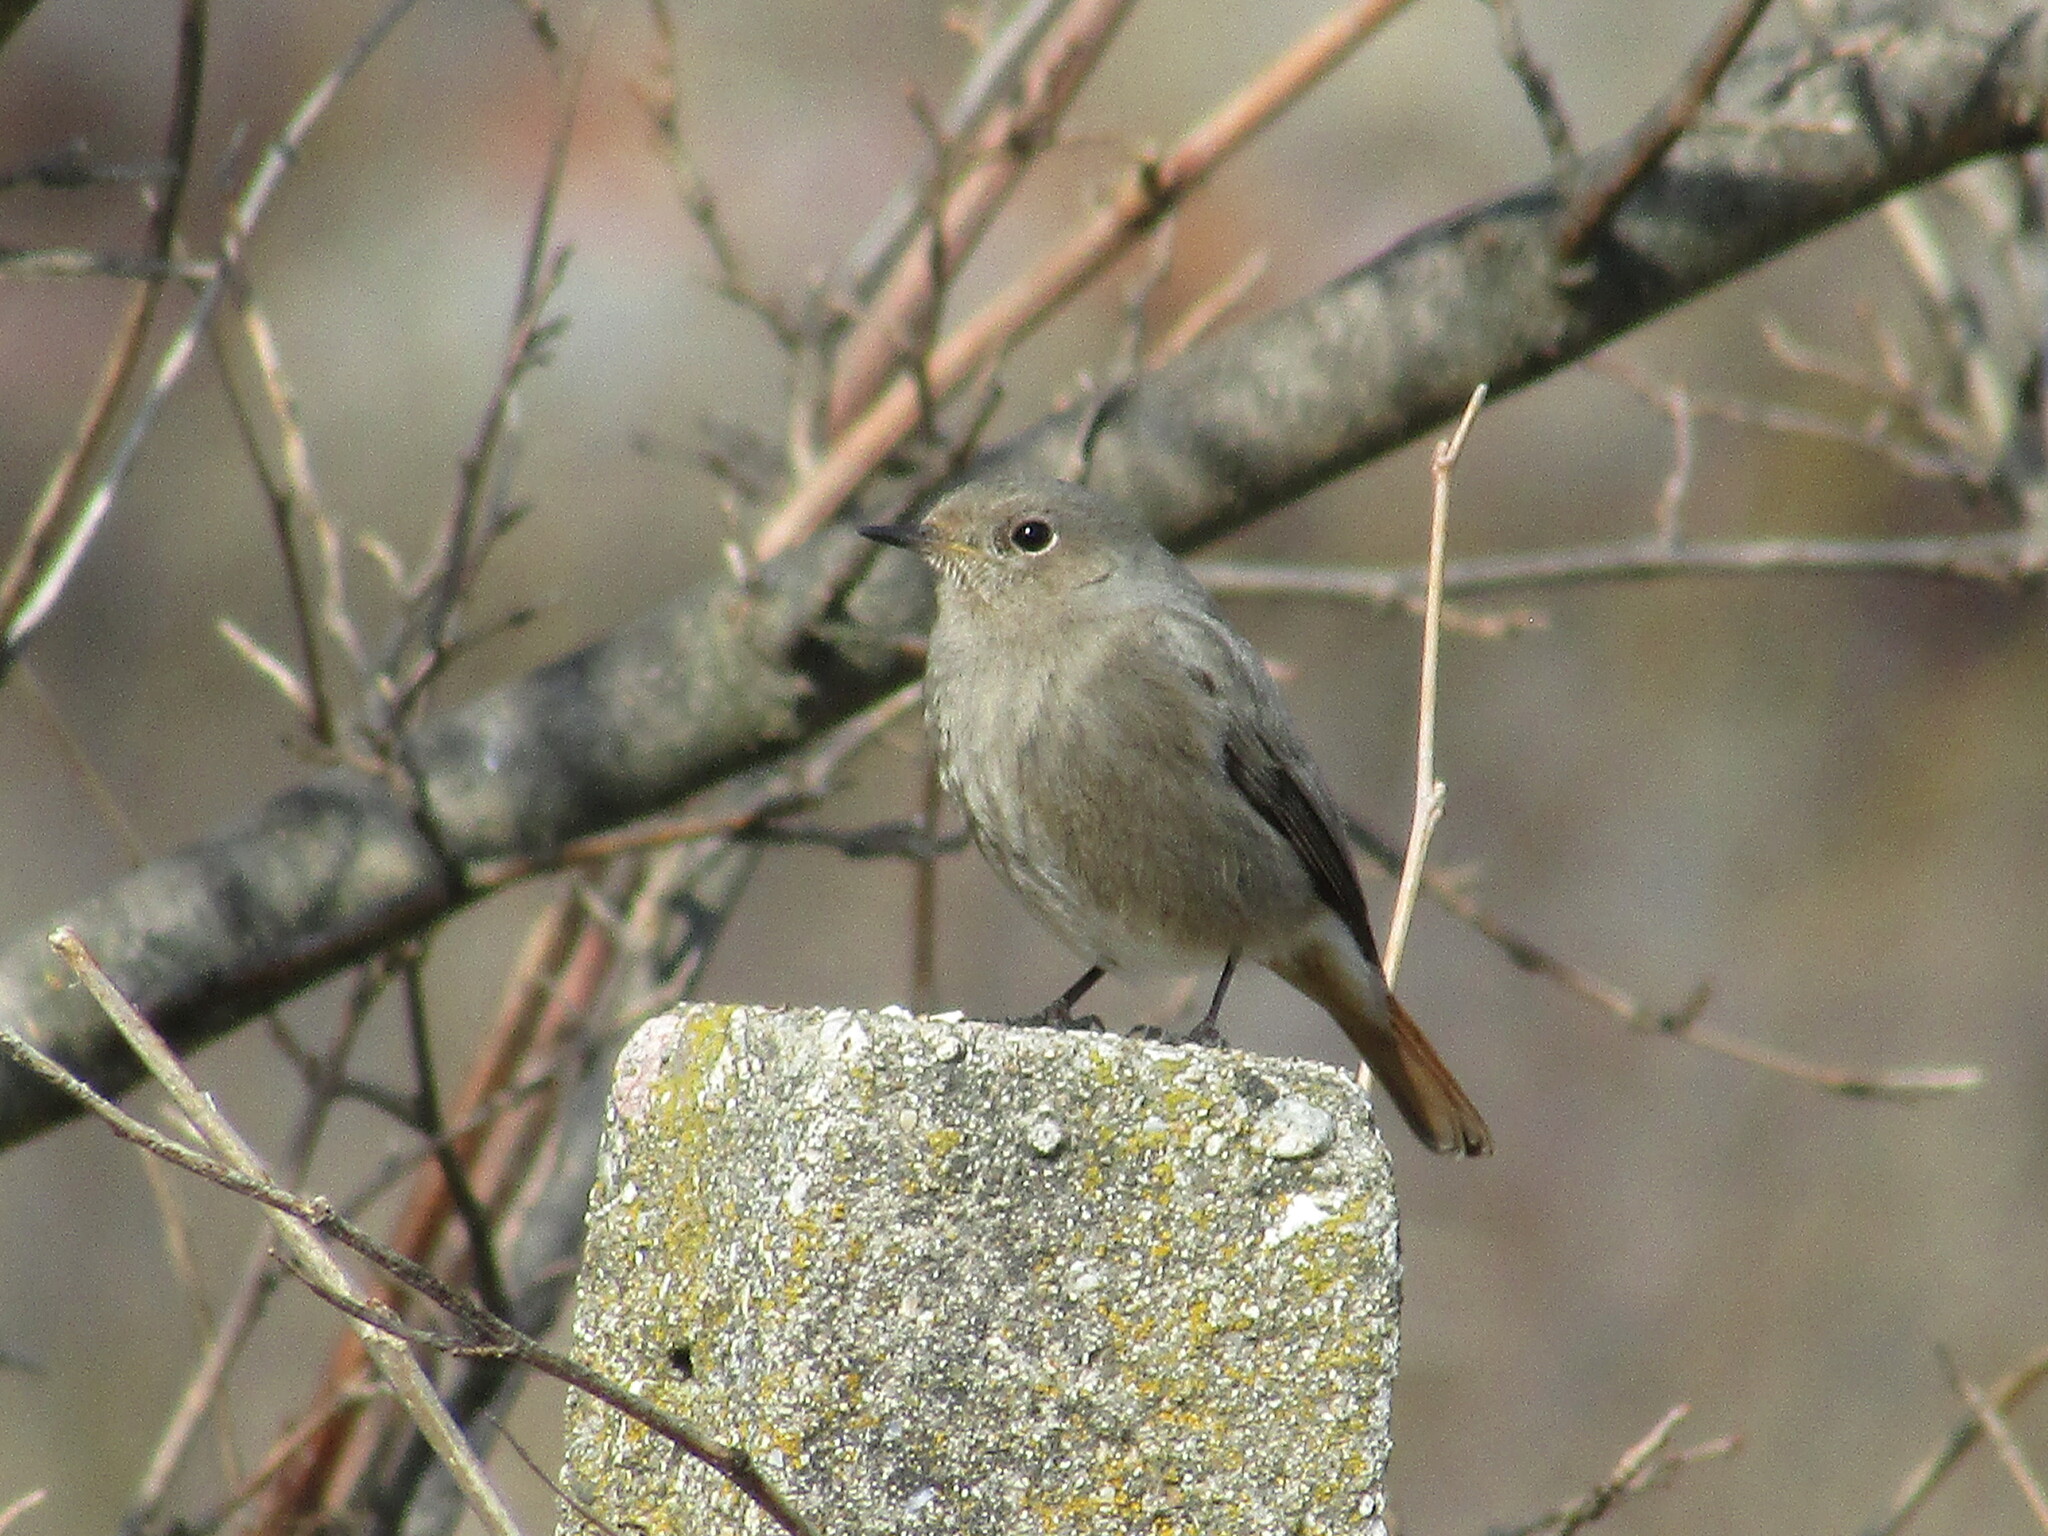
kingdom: Animalia
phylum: Chordata
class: Aves
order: Passeriformes
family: Muscicapidae
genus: Phoenicurus
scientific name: Phoenicurus ochruros
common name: Black redstart
